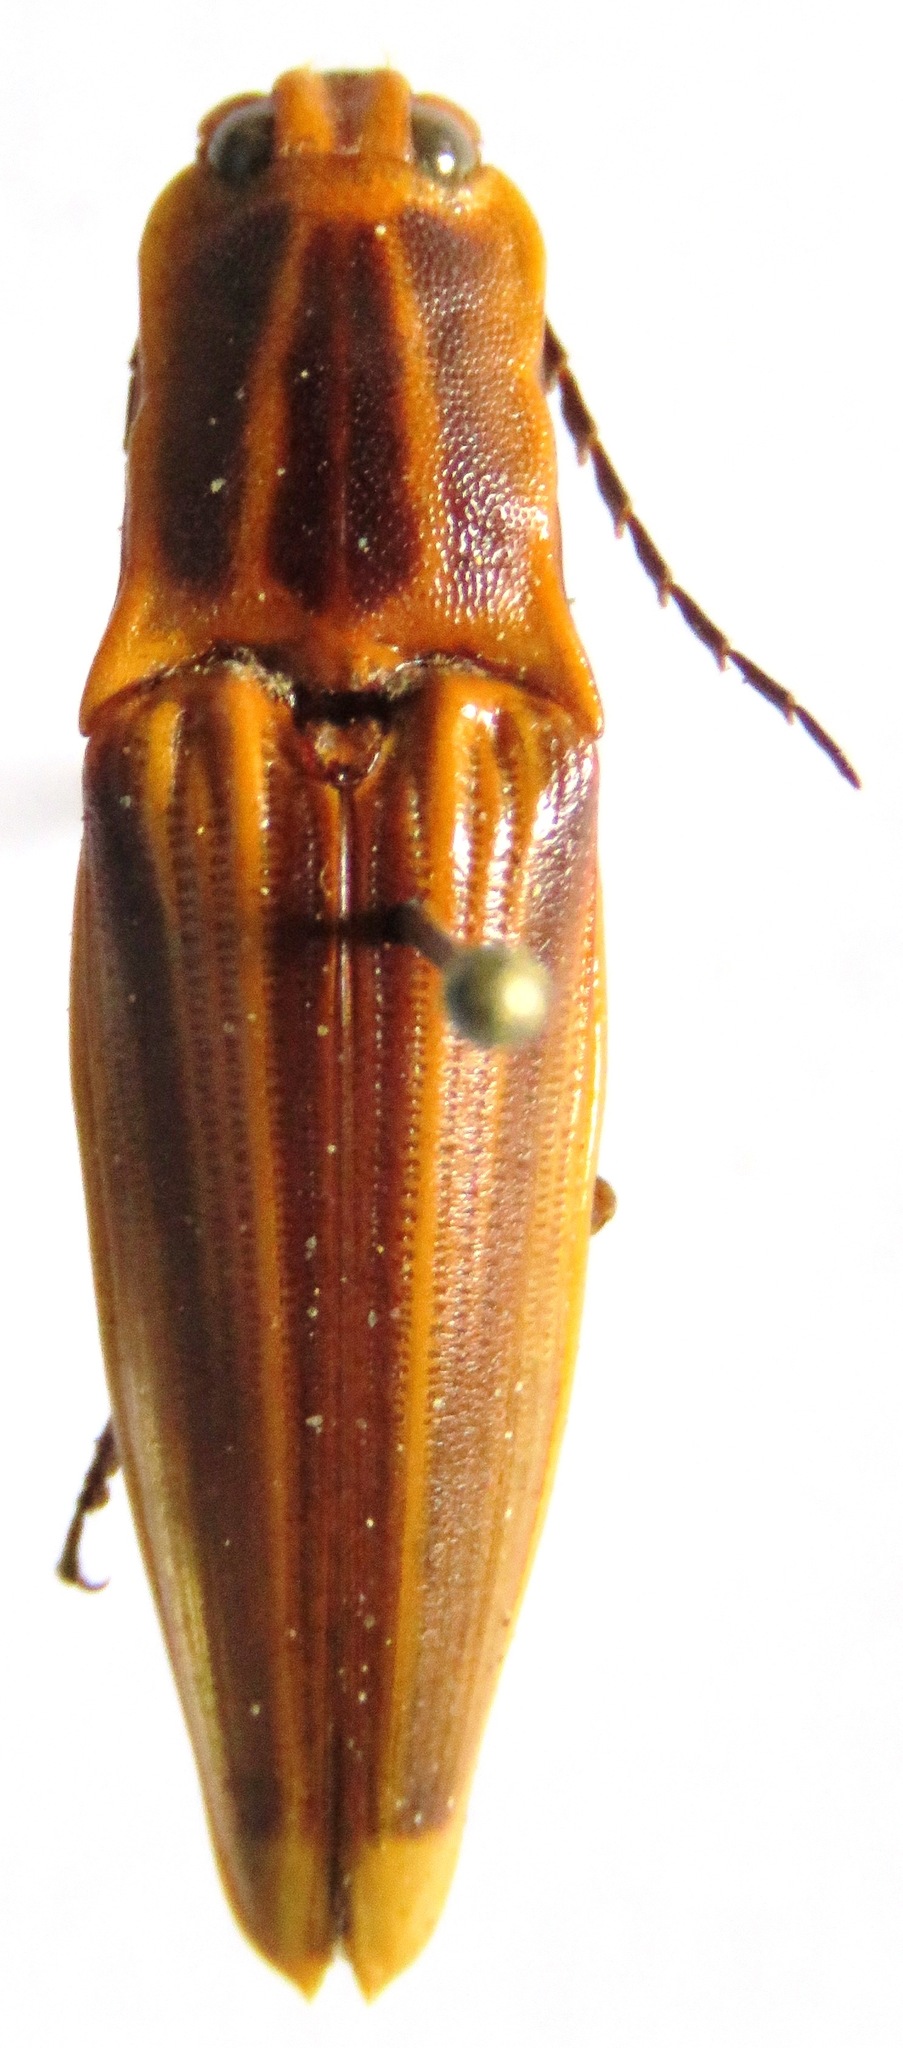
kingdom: Animalia
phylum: Arthropoda
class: Insecta
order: Coleoptera
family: Elateridae
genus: Semiotus
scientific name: Semiotus ligneus
